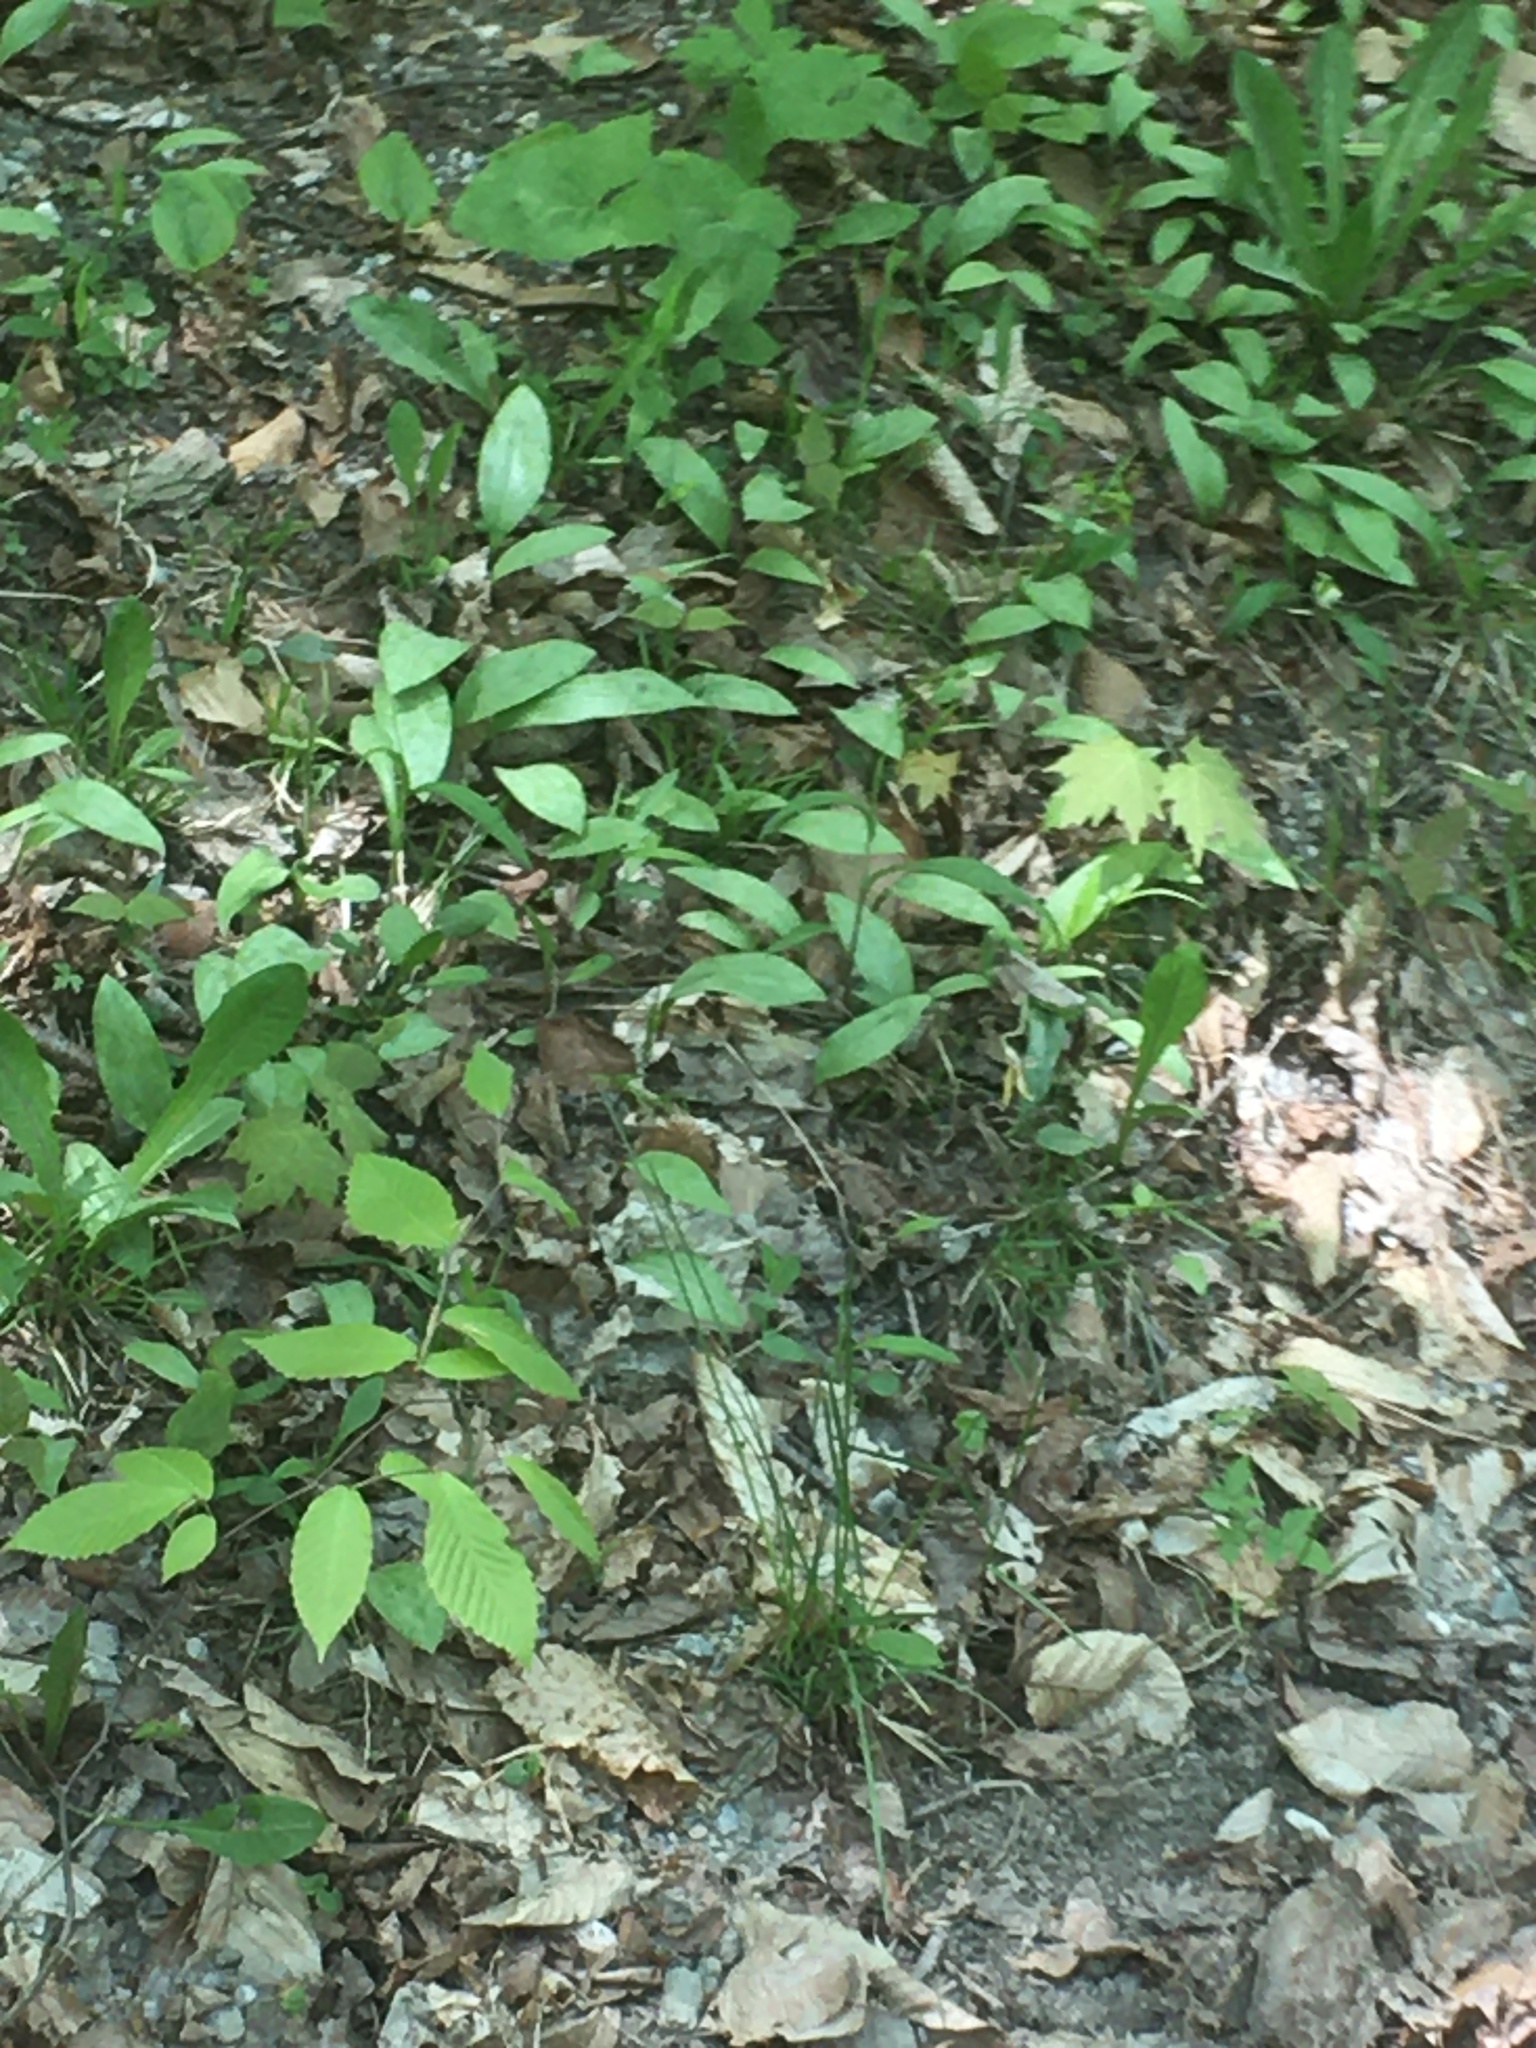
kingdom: Plantae
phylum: Tracheophyta
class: Liliopsida
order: Liliales
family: Liliaceae
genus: Erythronium
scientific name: Erythronium americanum
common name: Yellow adder's-tongue
